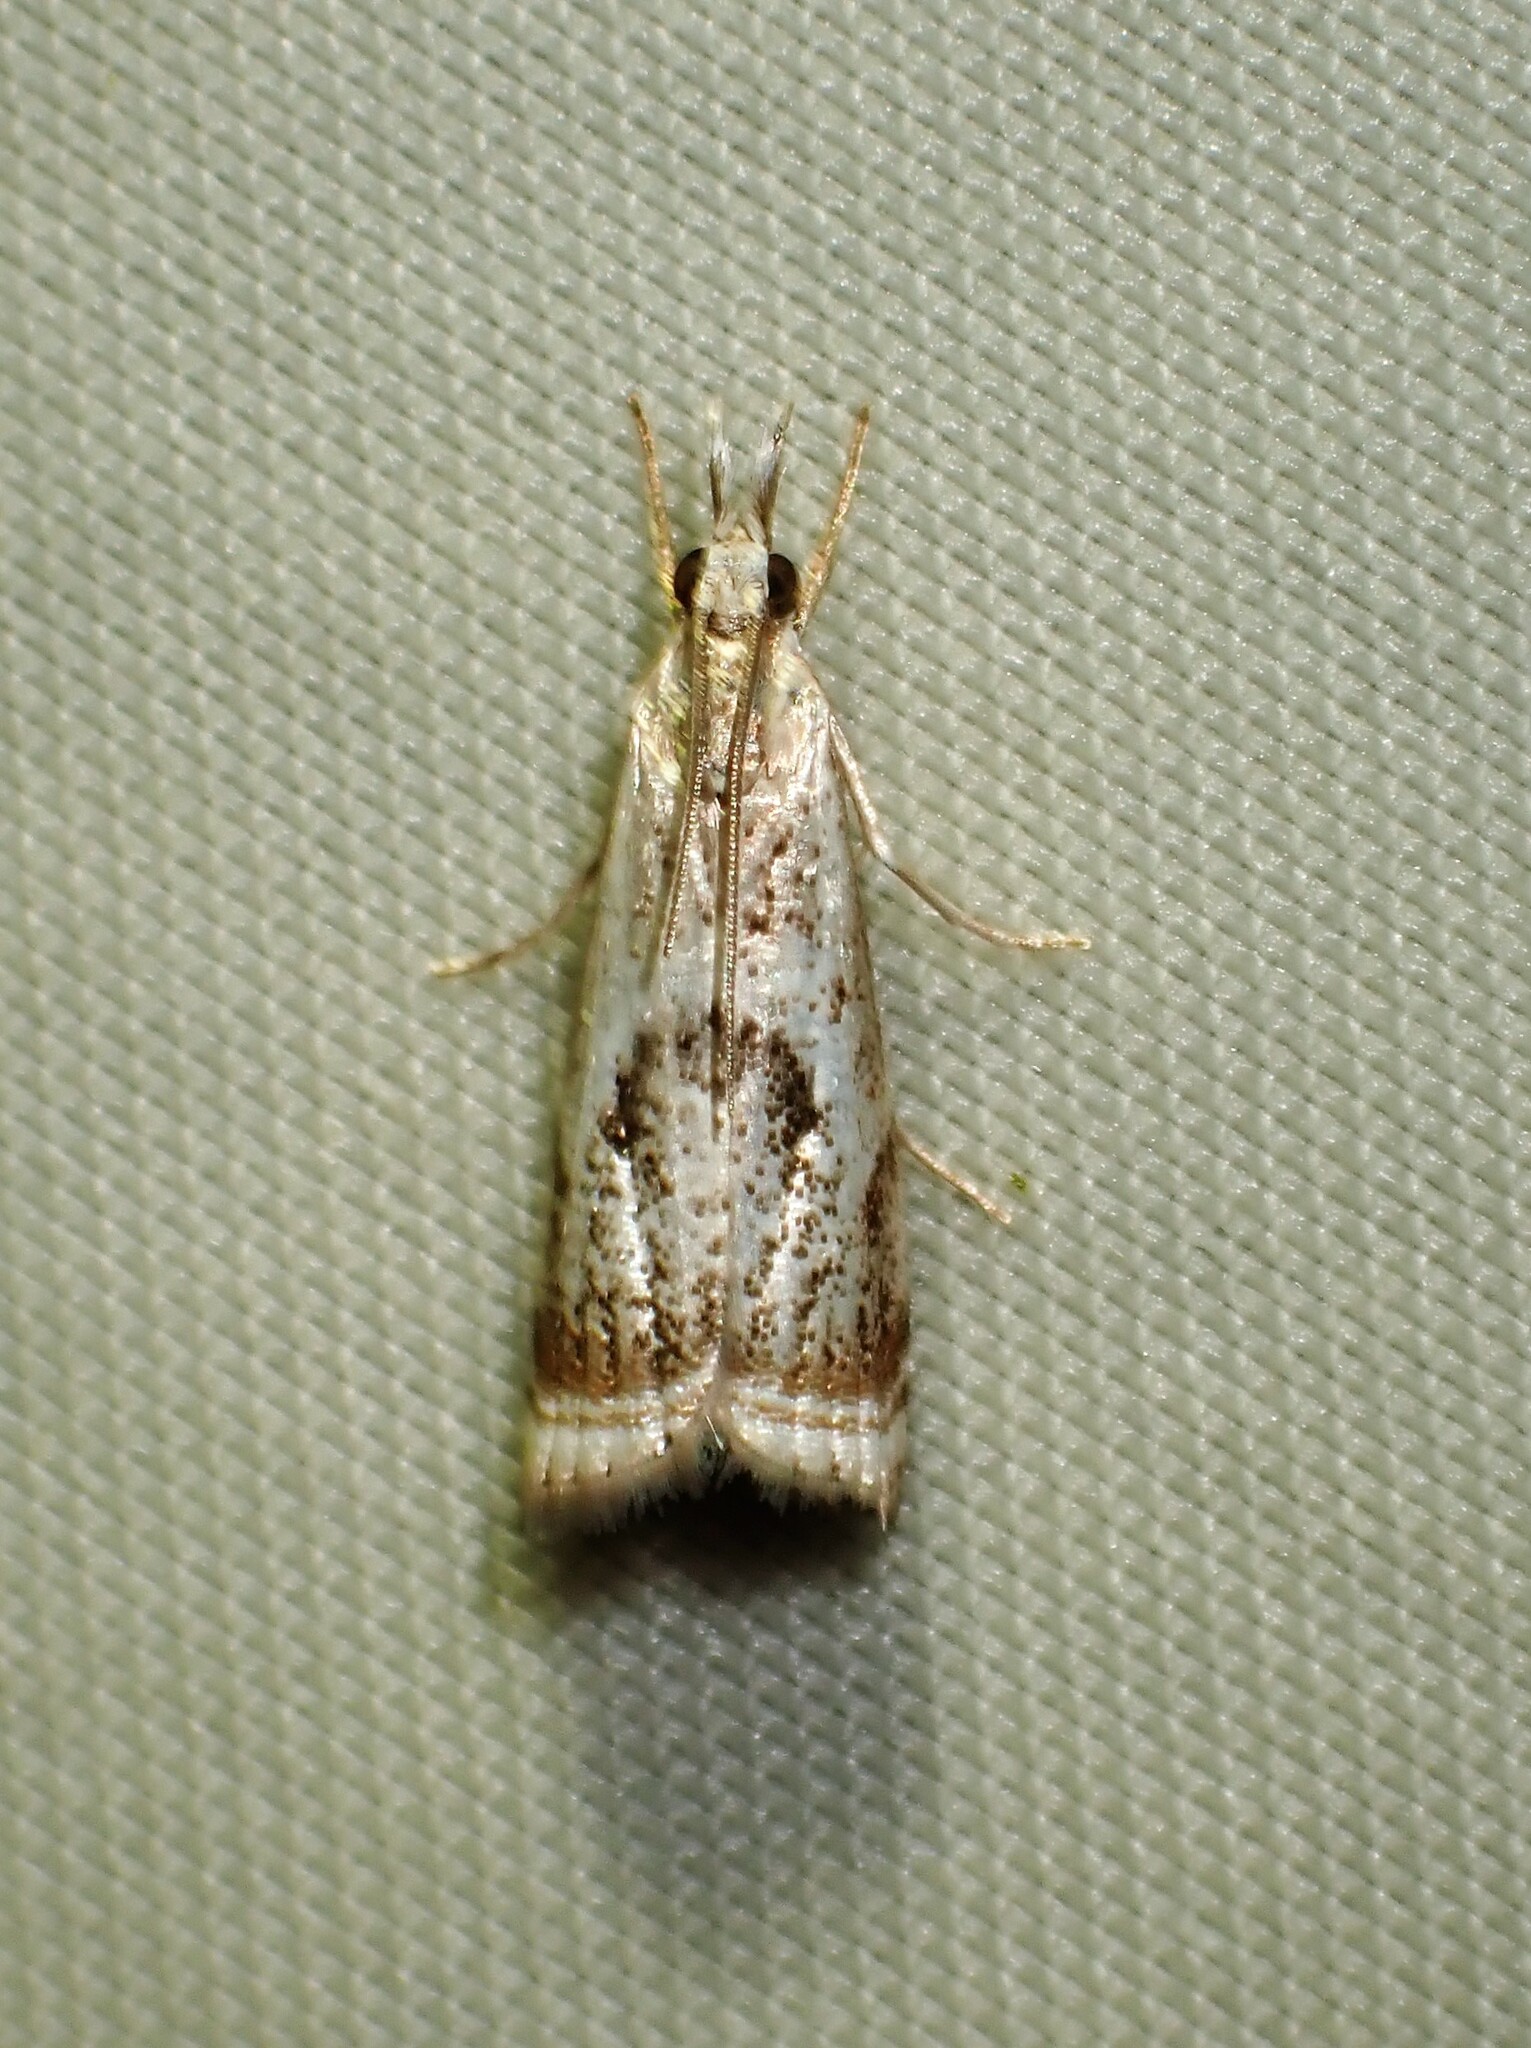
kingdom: Animalia
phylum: Arthropoda
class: Insecta
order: Lepidoptera
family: Crambidae
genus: Microcrambus
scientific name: Microcrambus elegans
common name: Elegant grass-veneer
